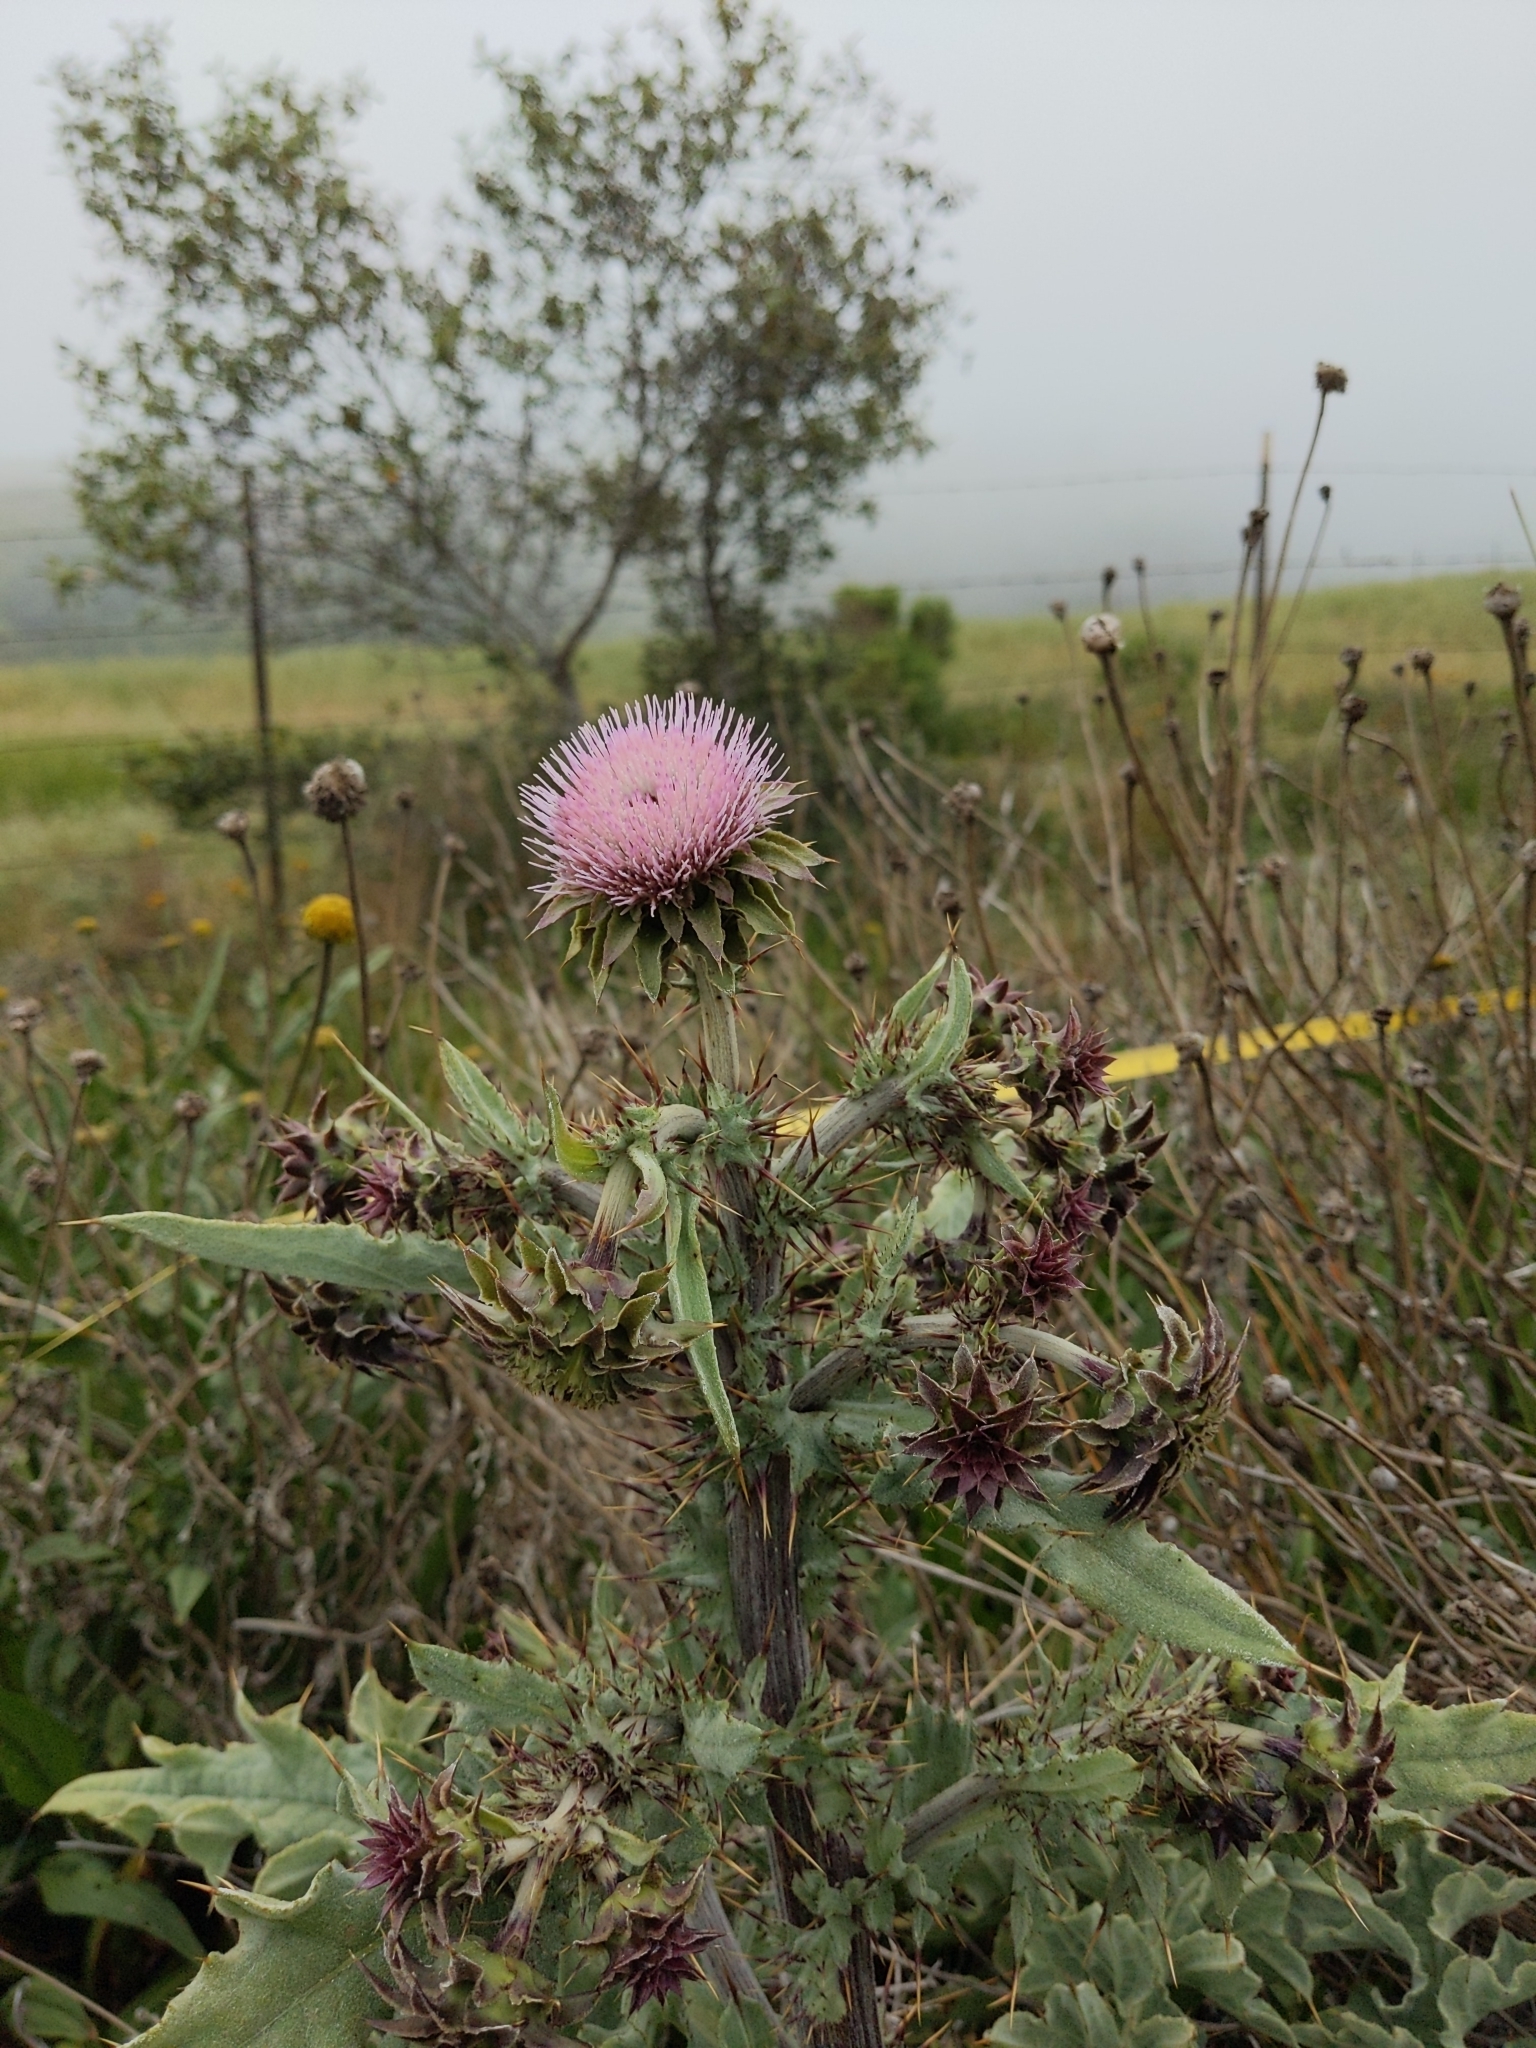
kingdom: Plantae
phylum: Tracheophyta
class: Magnoliopsida
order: Asterales
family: Asteraceae
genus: Cirsium
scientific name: Cirsium fontinale
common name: Fountain thistle
